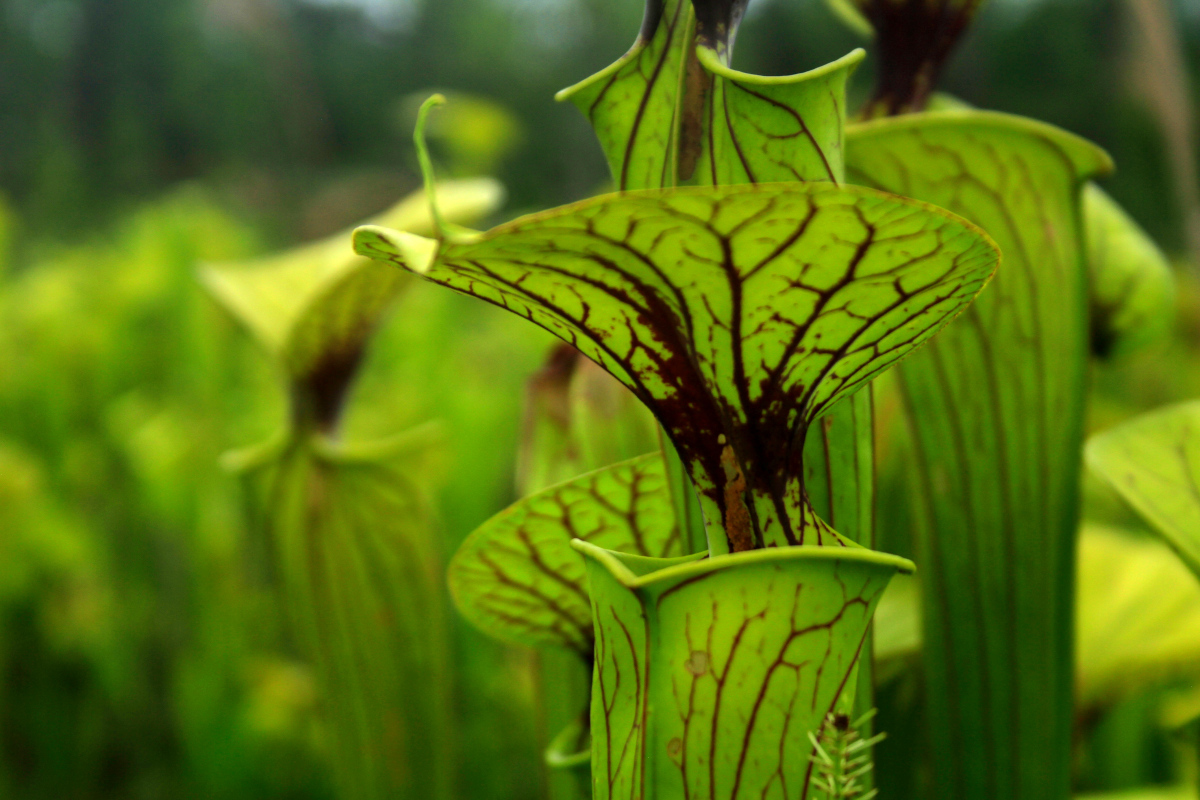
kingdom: Plantae
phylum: Tracheophyta
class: Magnoliopsida
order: Ericales
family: Sarraceniaceae
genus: Sarracenia
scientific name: Sarracenia flava
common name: Trumpets
